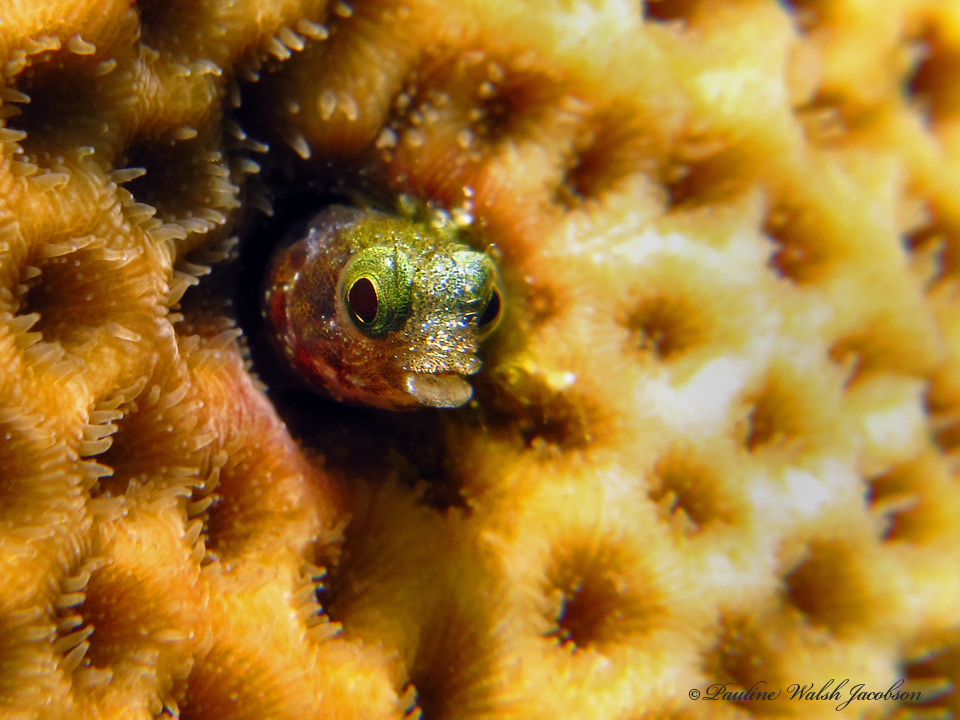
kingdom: Animalia
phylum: Chordata
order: Perciformes
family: Chaenopsidae
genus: Acanthemblemaria
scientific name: Acanthemblemaria spinosa
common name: Spinyhead blenny
